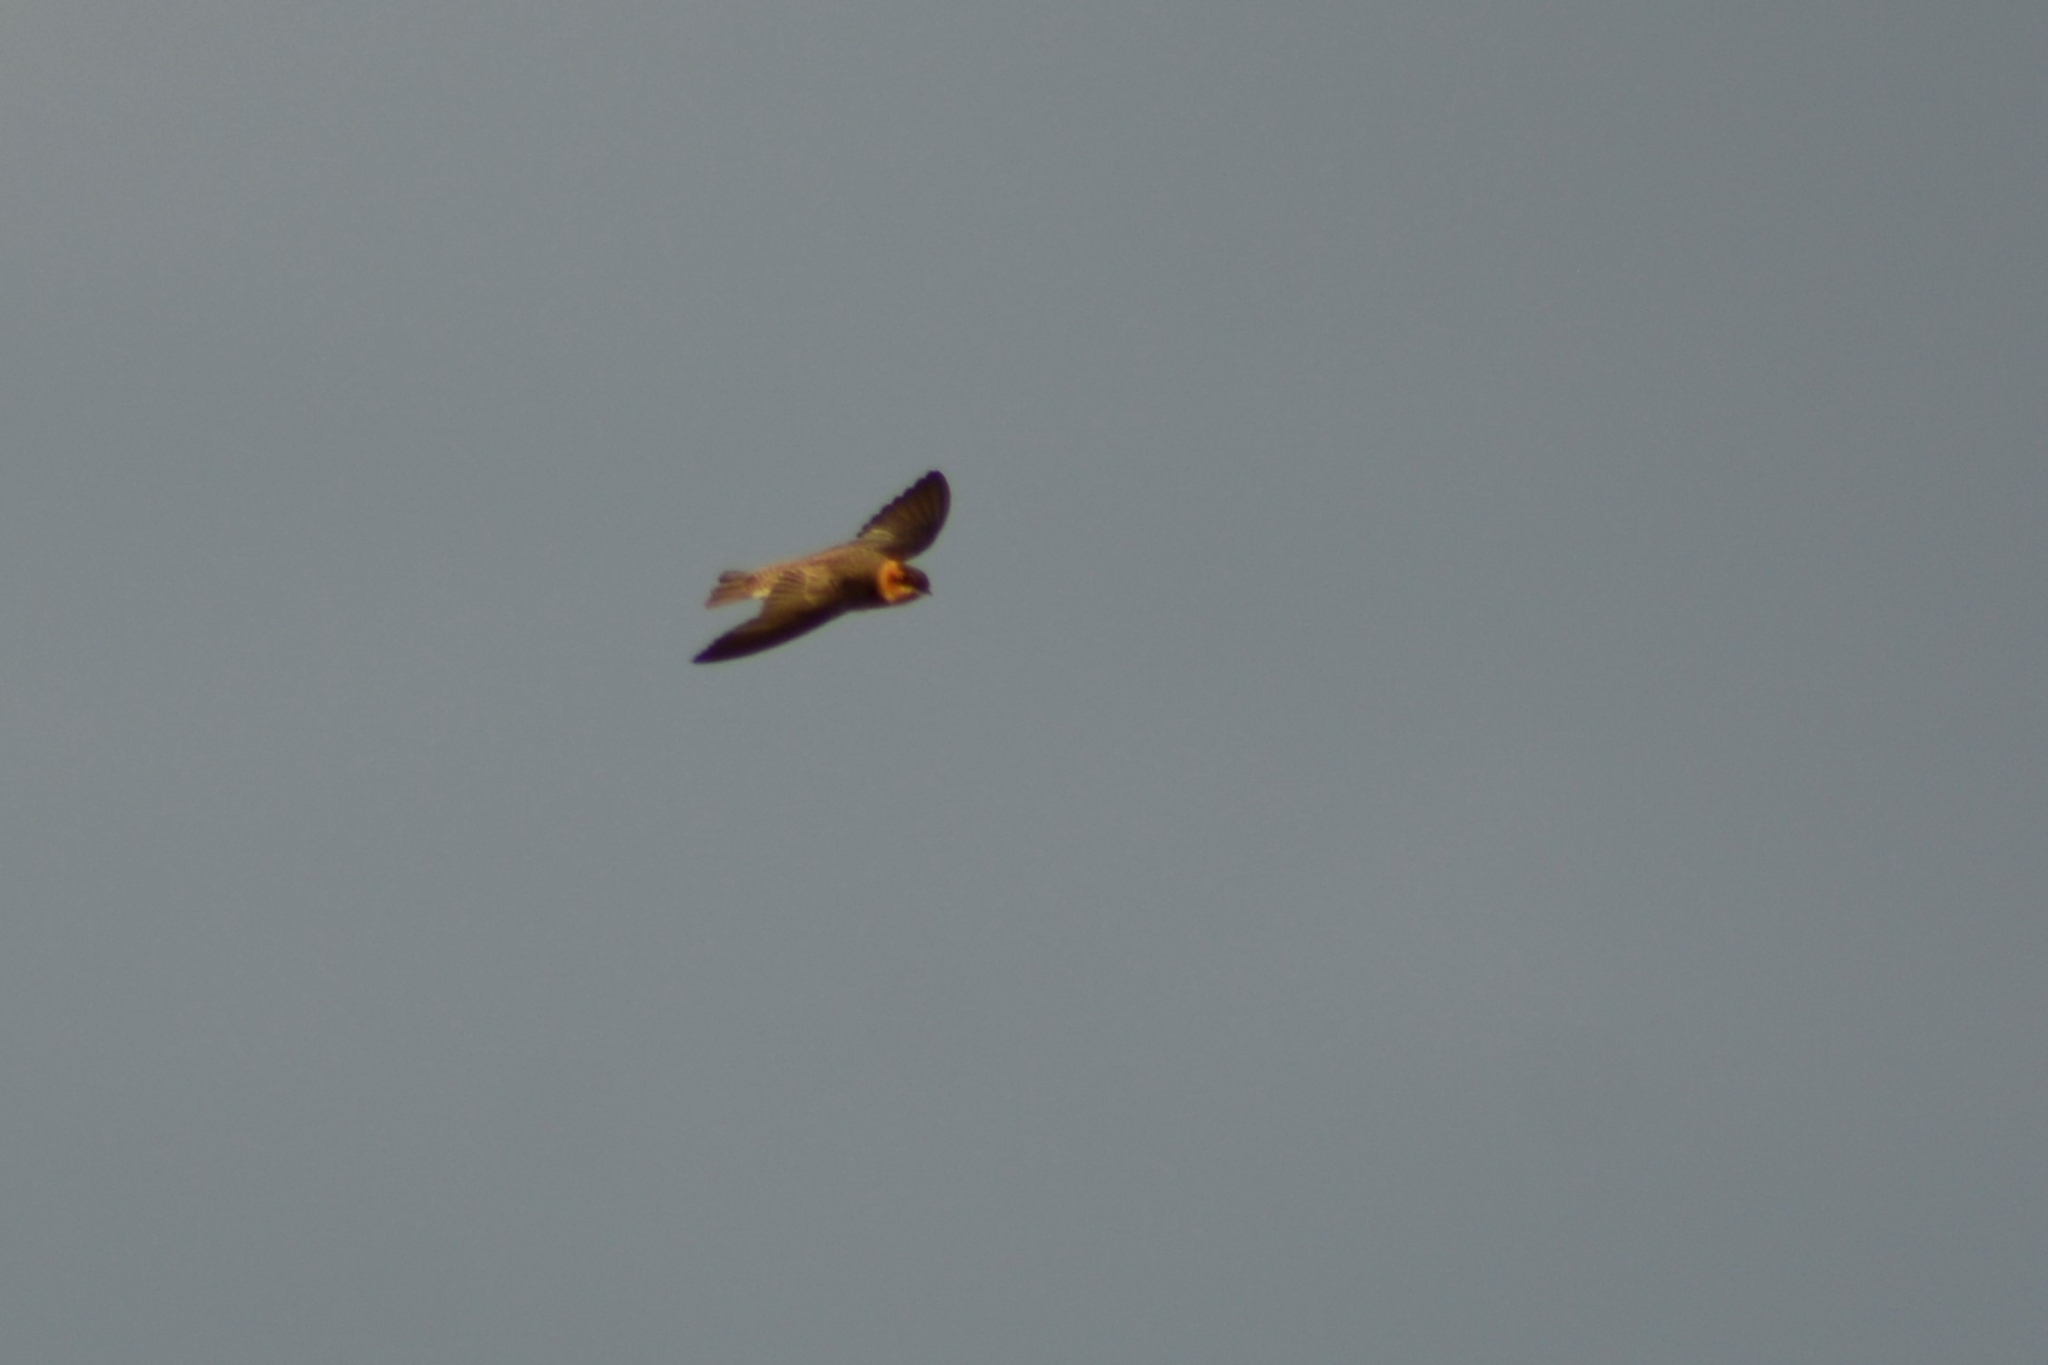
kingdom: Animalia
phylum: Chordata
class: Aves
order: Passeriformes
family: Hirundinidae
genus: Alopochelidon
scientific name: Alopochelidon fucata
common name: Tawny-headed swallow
